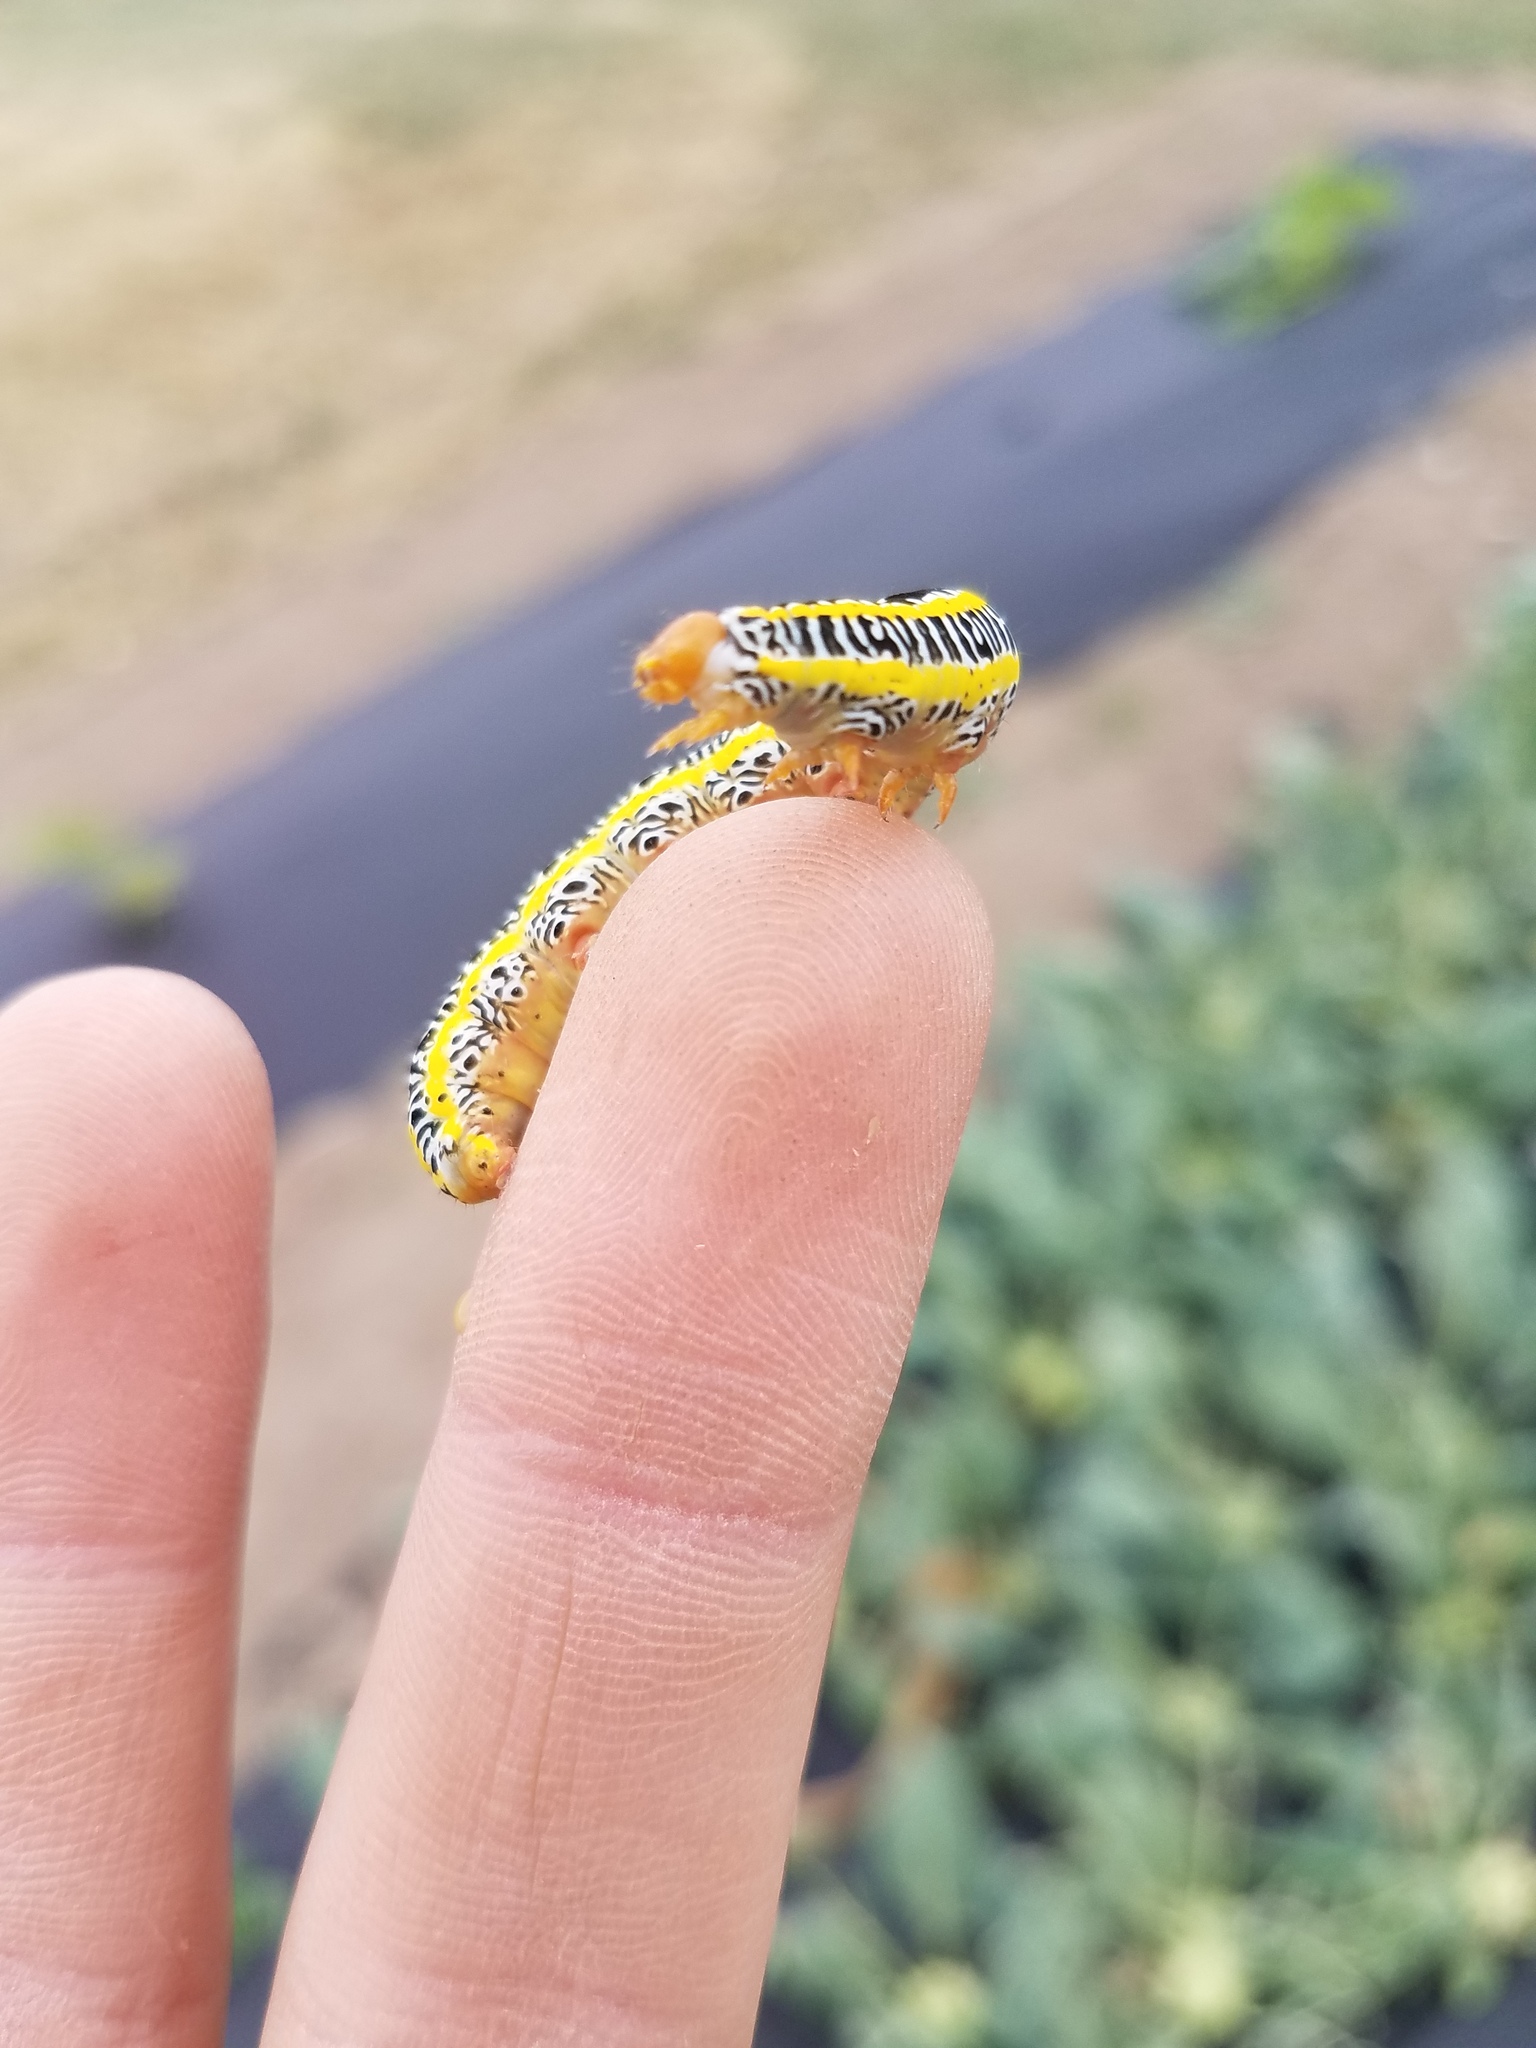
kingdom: Animalia
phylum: Arthropoda
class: Insecta
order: Lepidoptera
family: Noctuidae
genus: Melanchra
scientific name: Melanchra picta
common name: Zebra caterpillar
